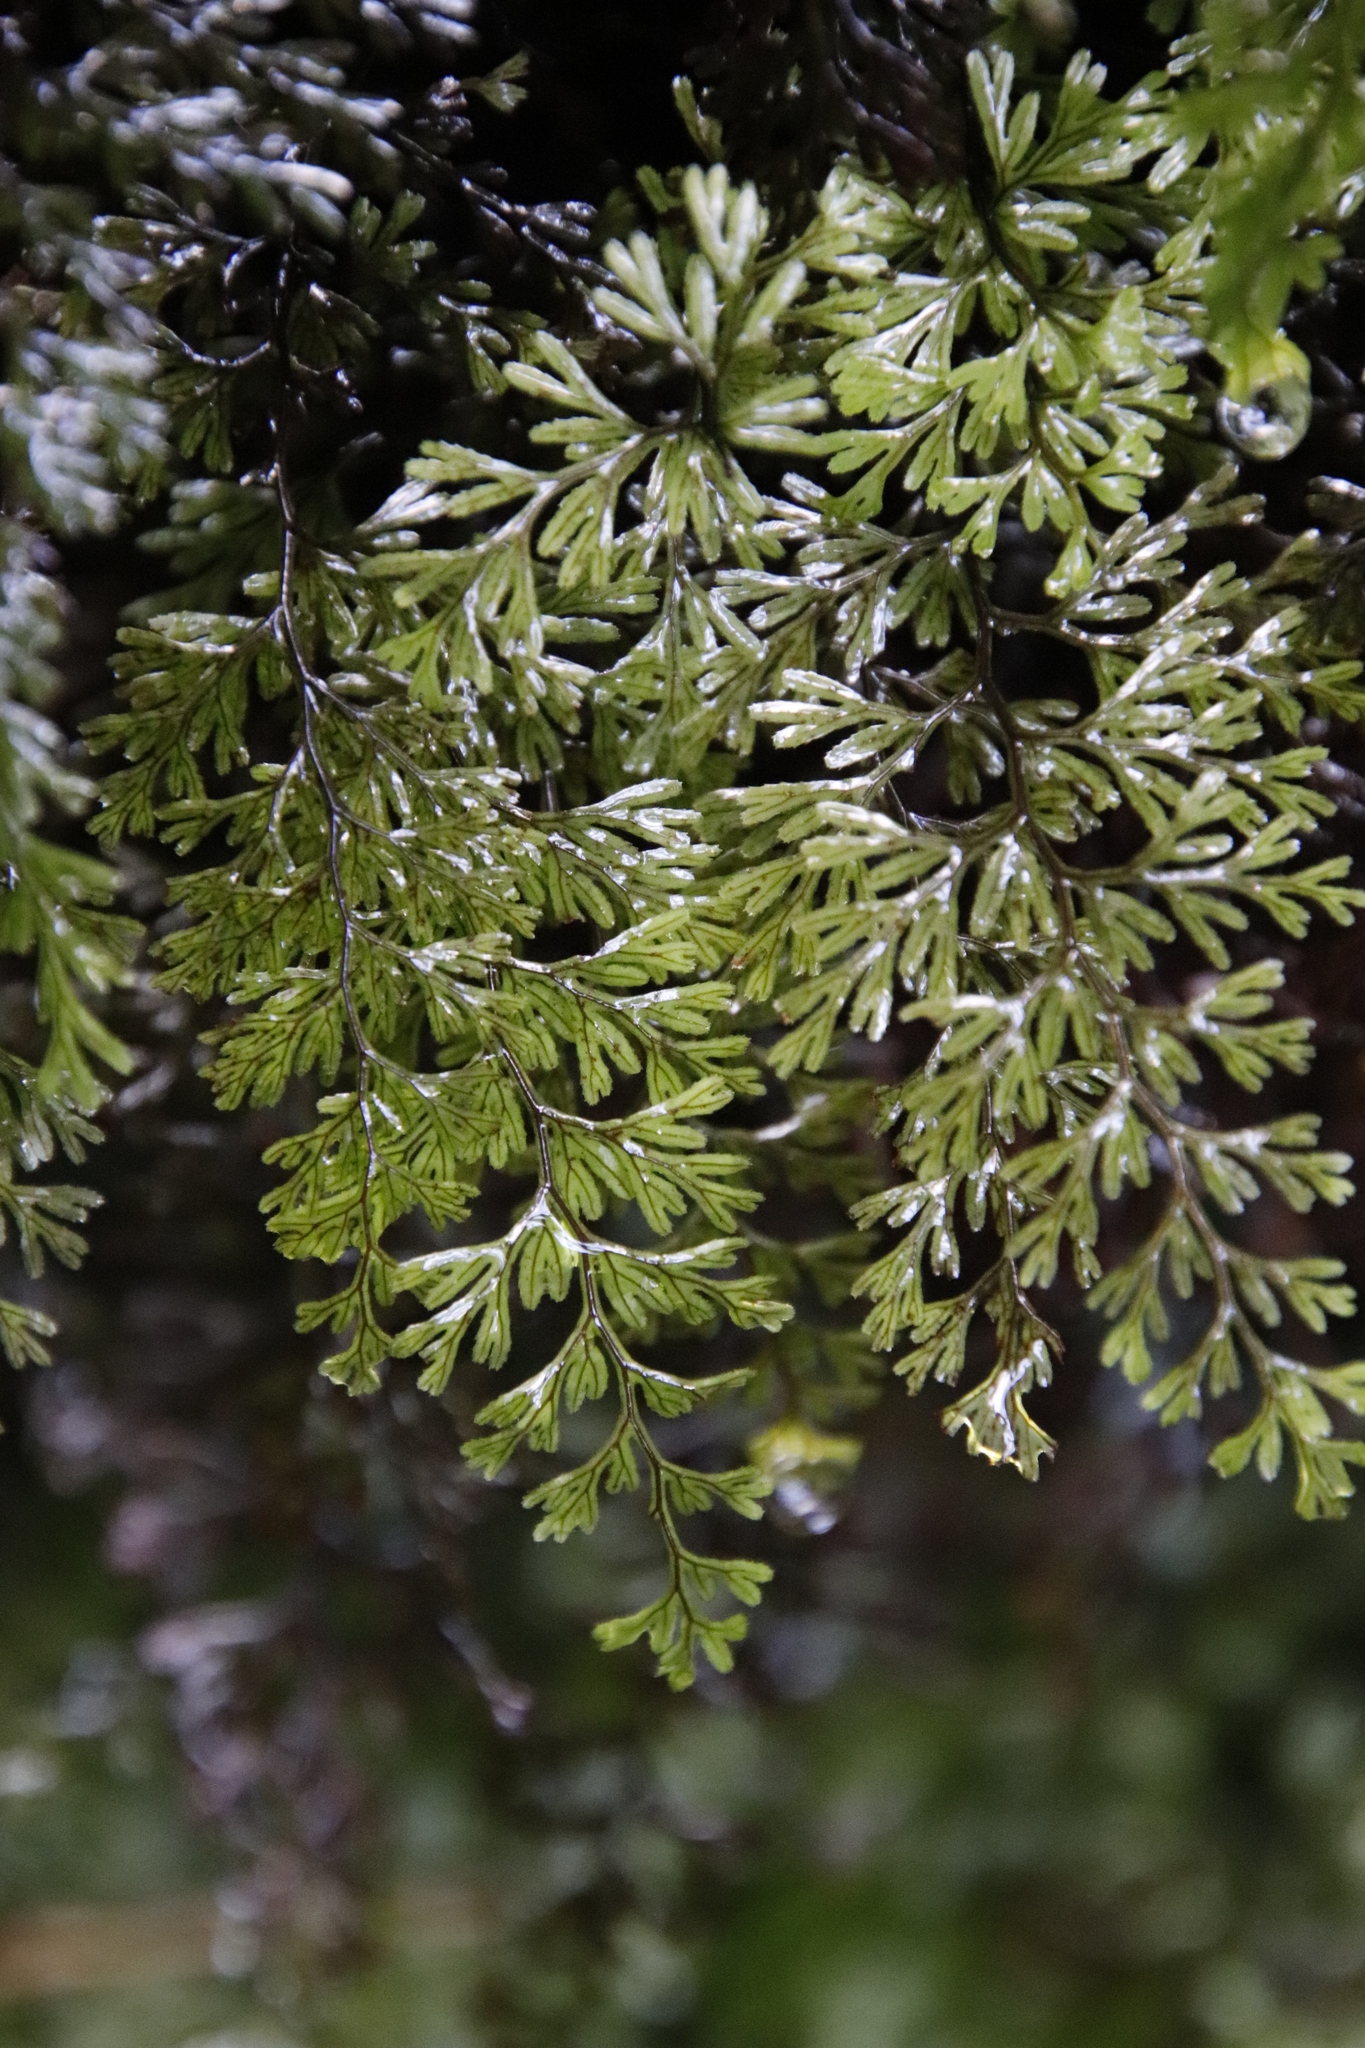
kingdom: Plantae
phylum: Tracheophyta
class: Polypodiopsida
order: Hymenophyllales
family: Hymenophyllaceae
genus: Hymenophyllum
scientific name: Hymenophyllum tunbrigense
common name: Tunbridge filmy fern
